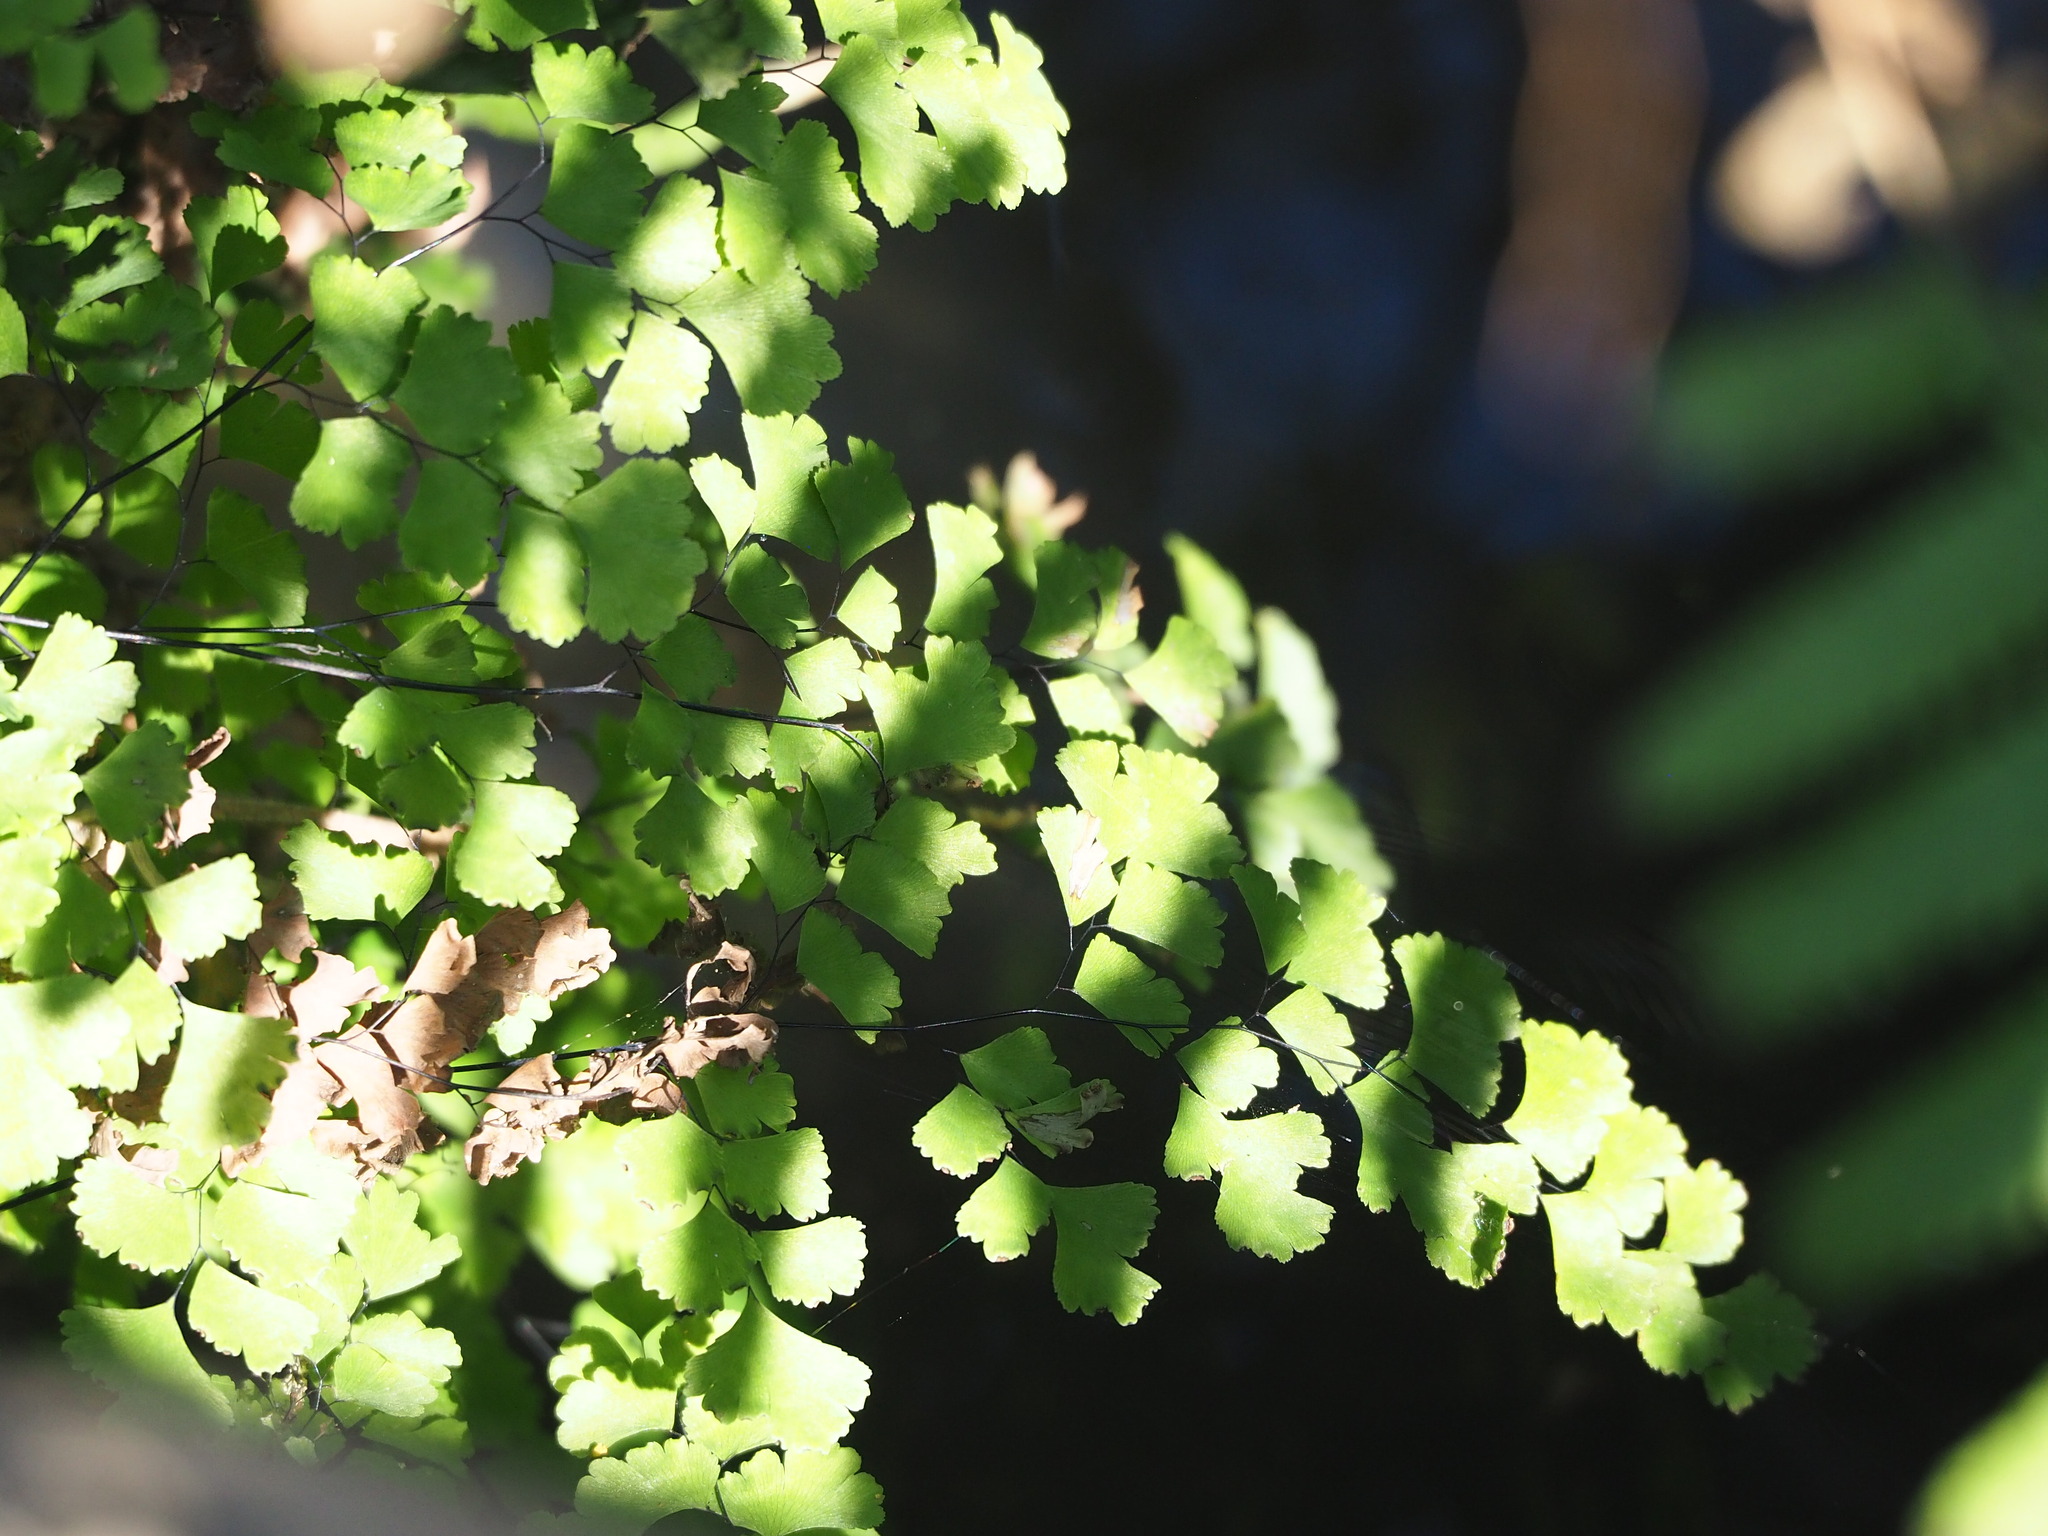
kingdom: Plantae
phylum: Tracheophyta
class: Polypodiopsida
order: Polypodiales
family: Pteridaceae
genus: Adiantum
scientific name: Adiantum capillus-veneris
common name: Maidenhair fern
